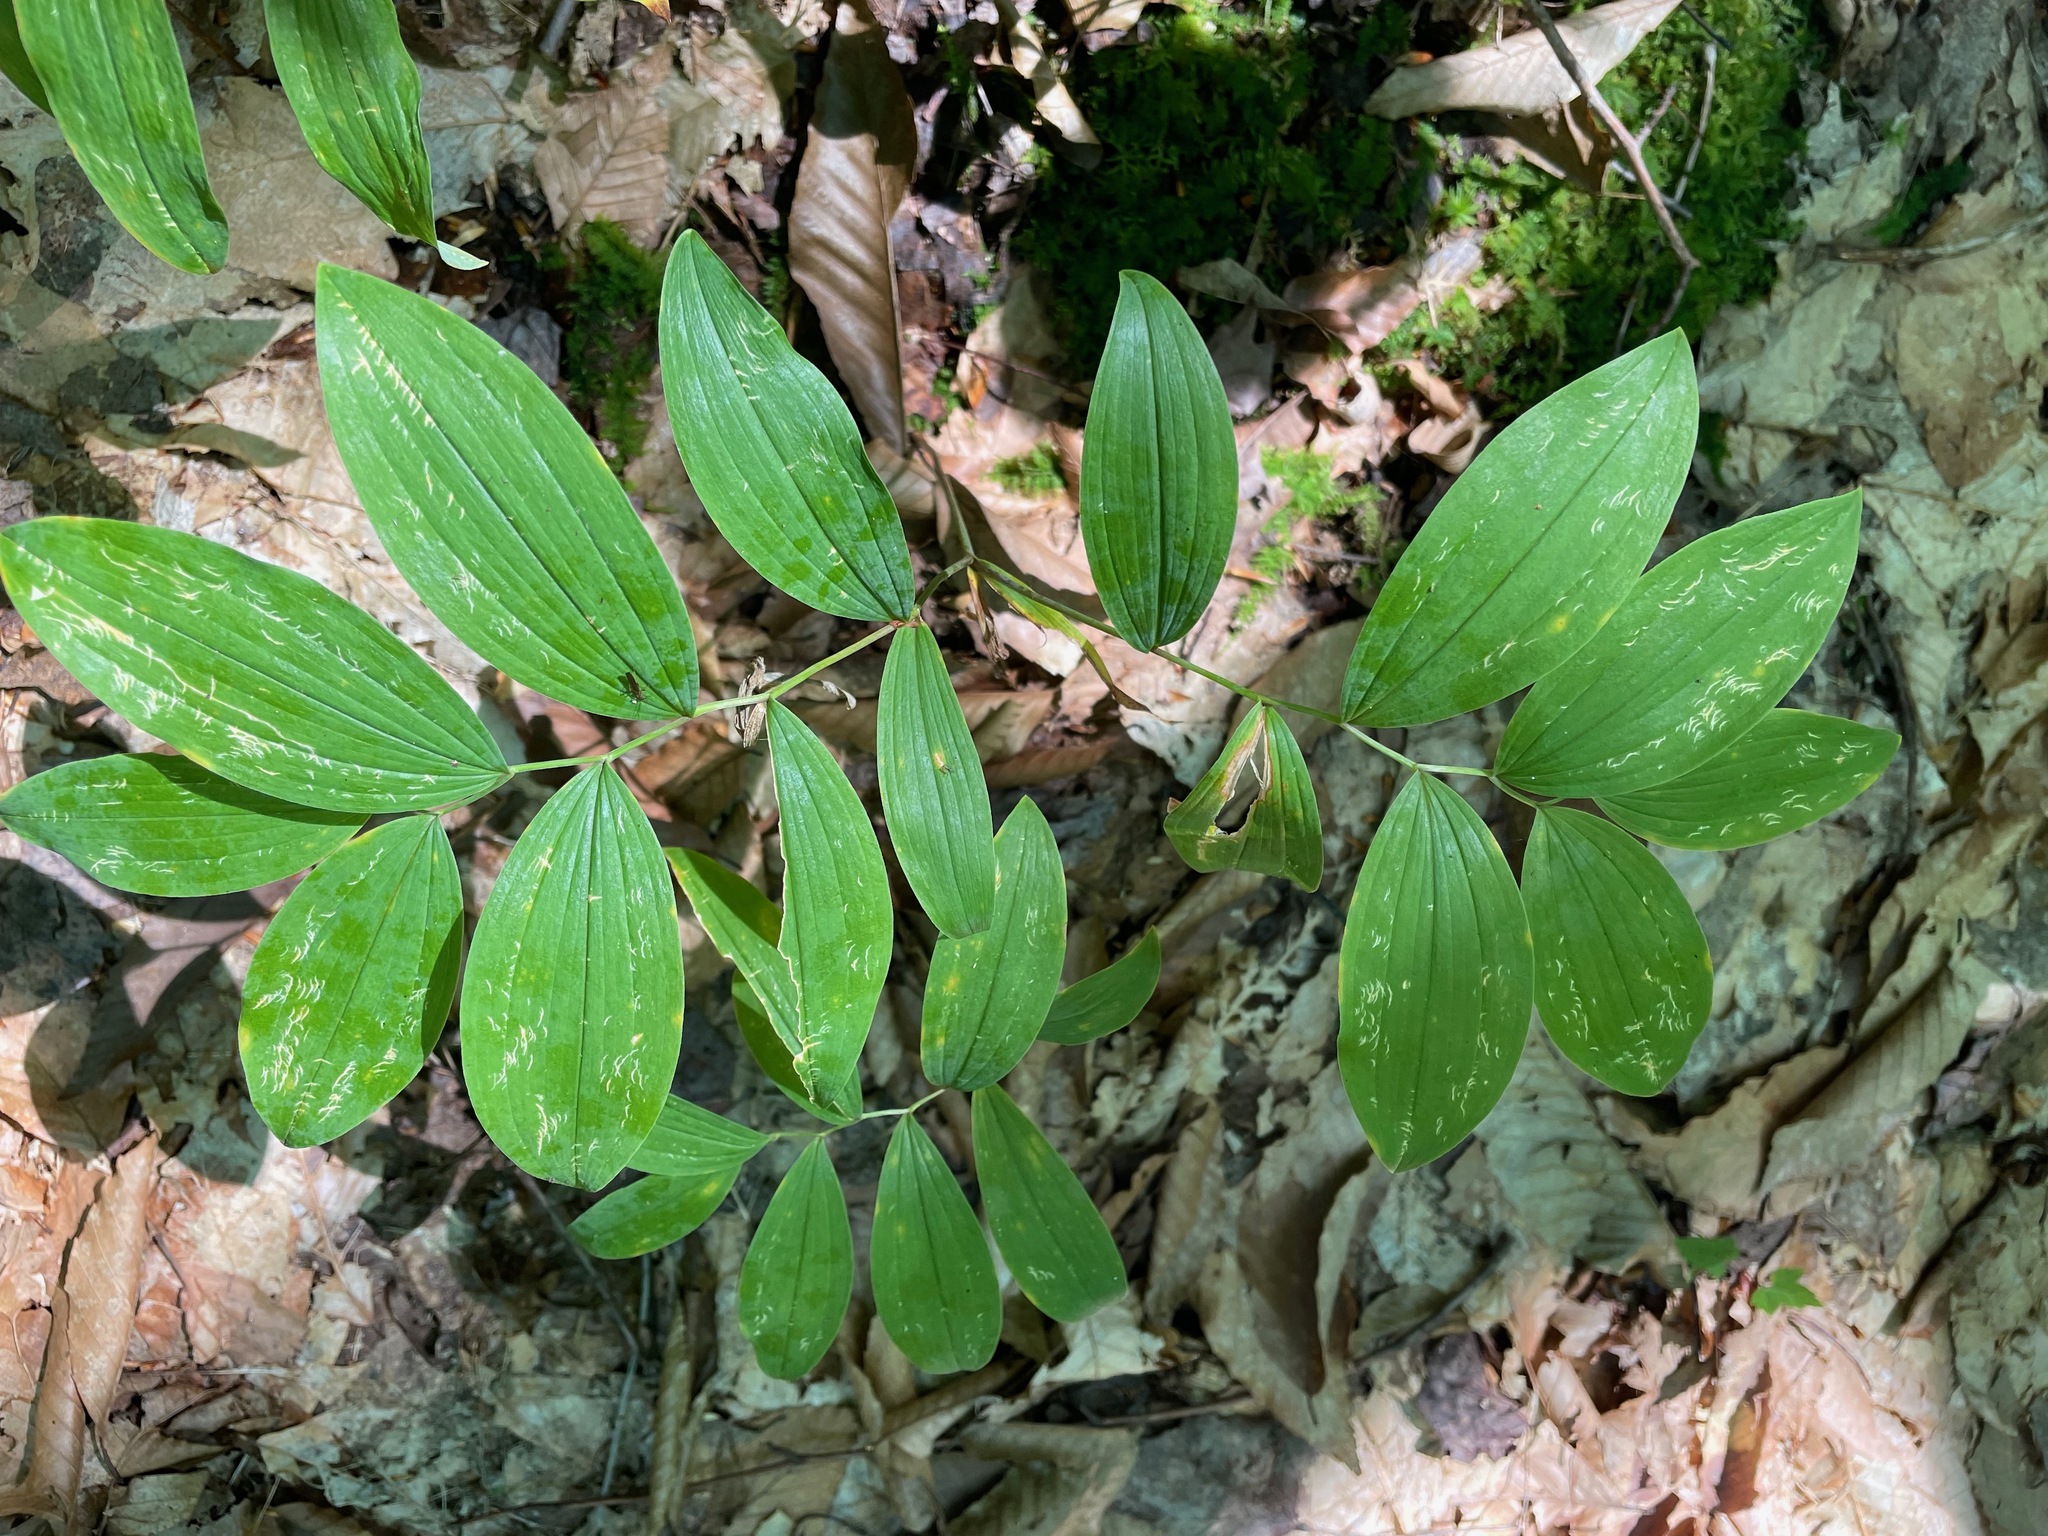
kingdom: Plantae
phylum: Tracheophyta
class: Liliopsida
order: Liliales
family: Colchicaceae
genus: Uvularia
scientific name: Uvularia sessilifolia
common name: Straw-lily
